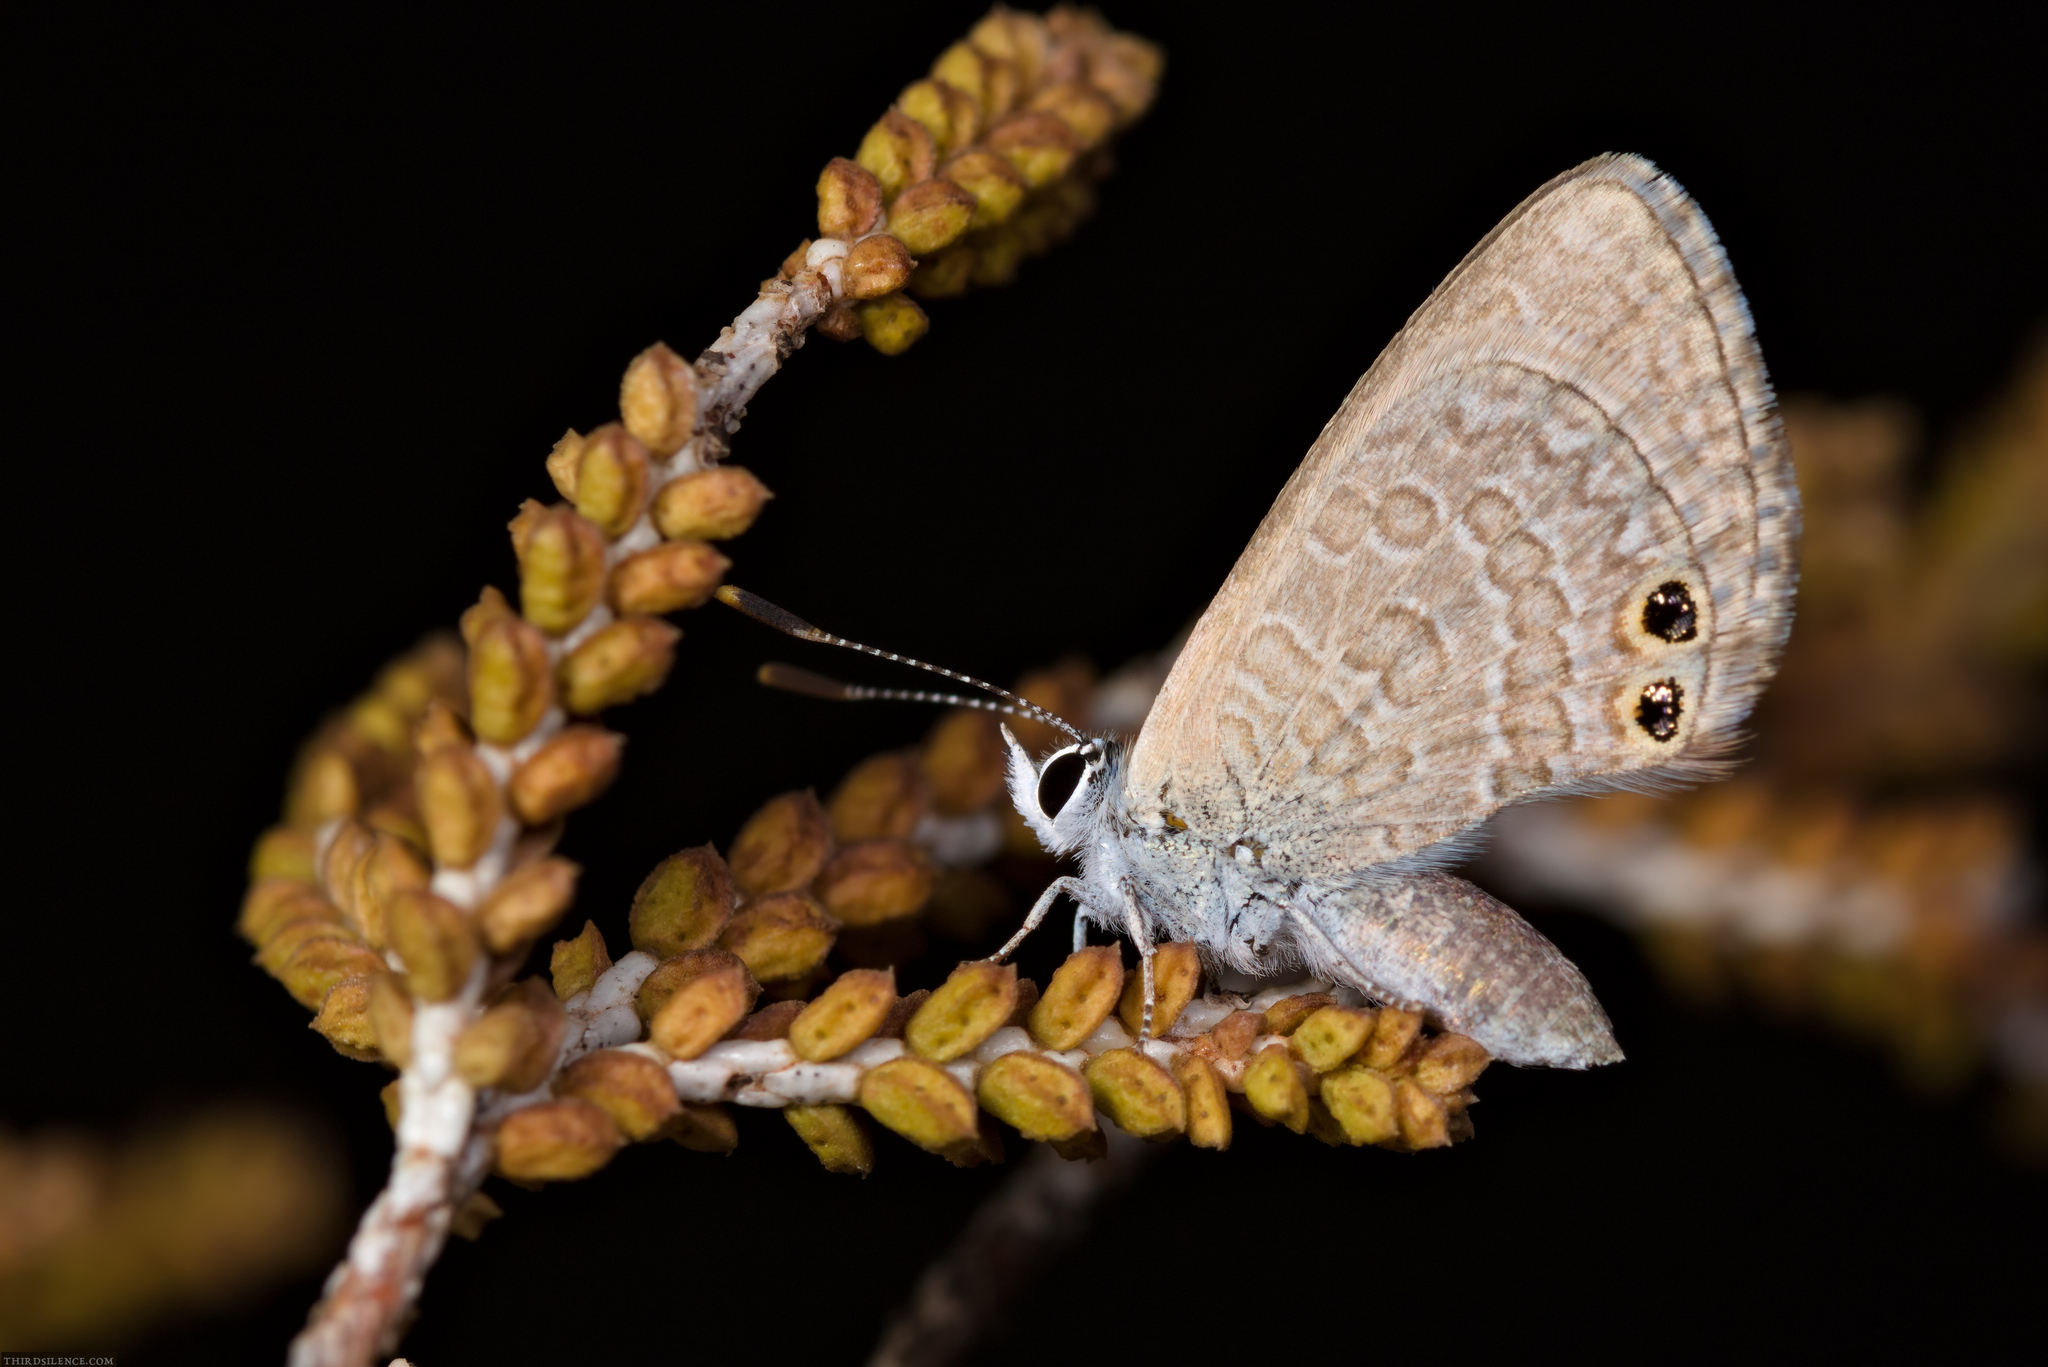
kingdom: Animalia
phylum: Arthropoda
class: Insecta
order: Lepidoptera
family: Lycaenidae
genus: Nacaduba
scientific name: Nacaduba biocellata
